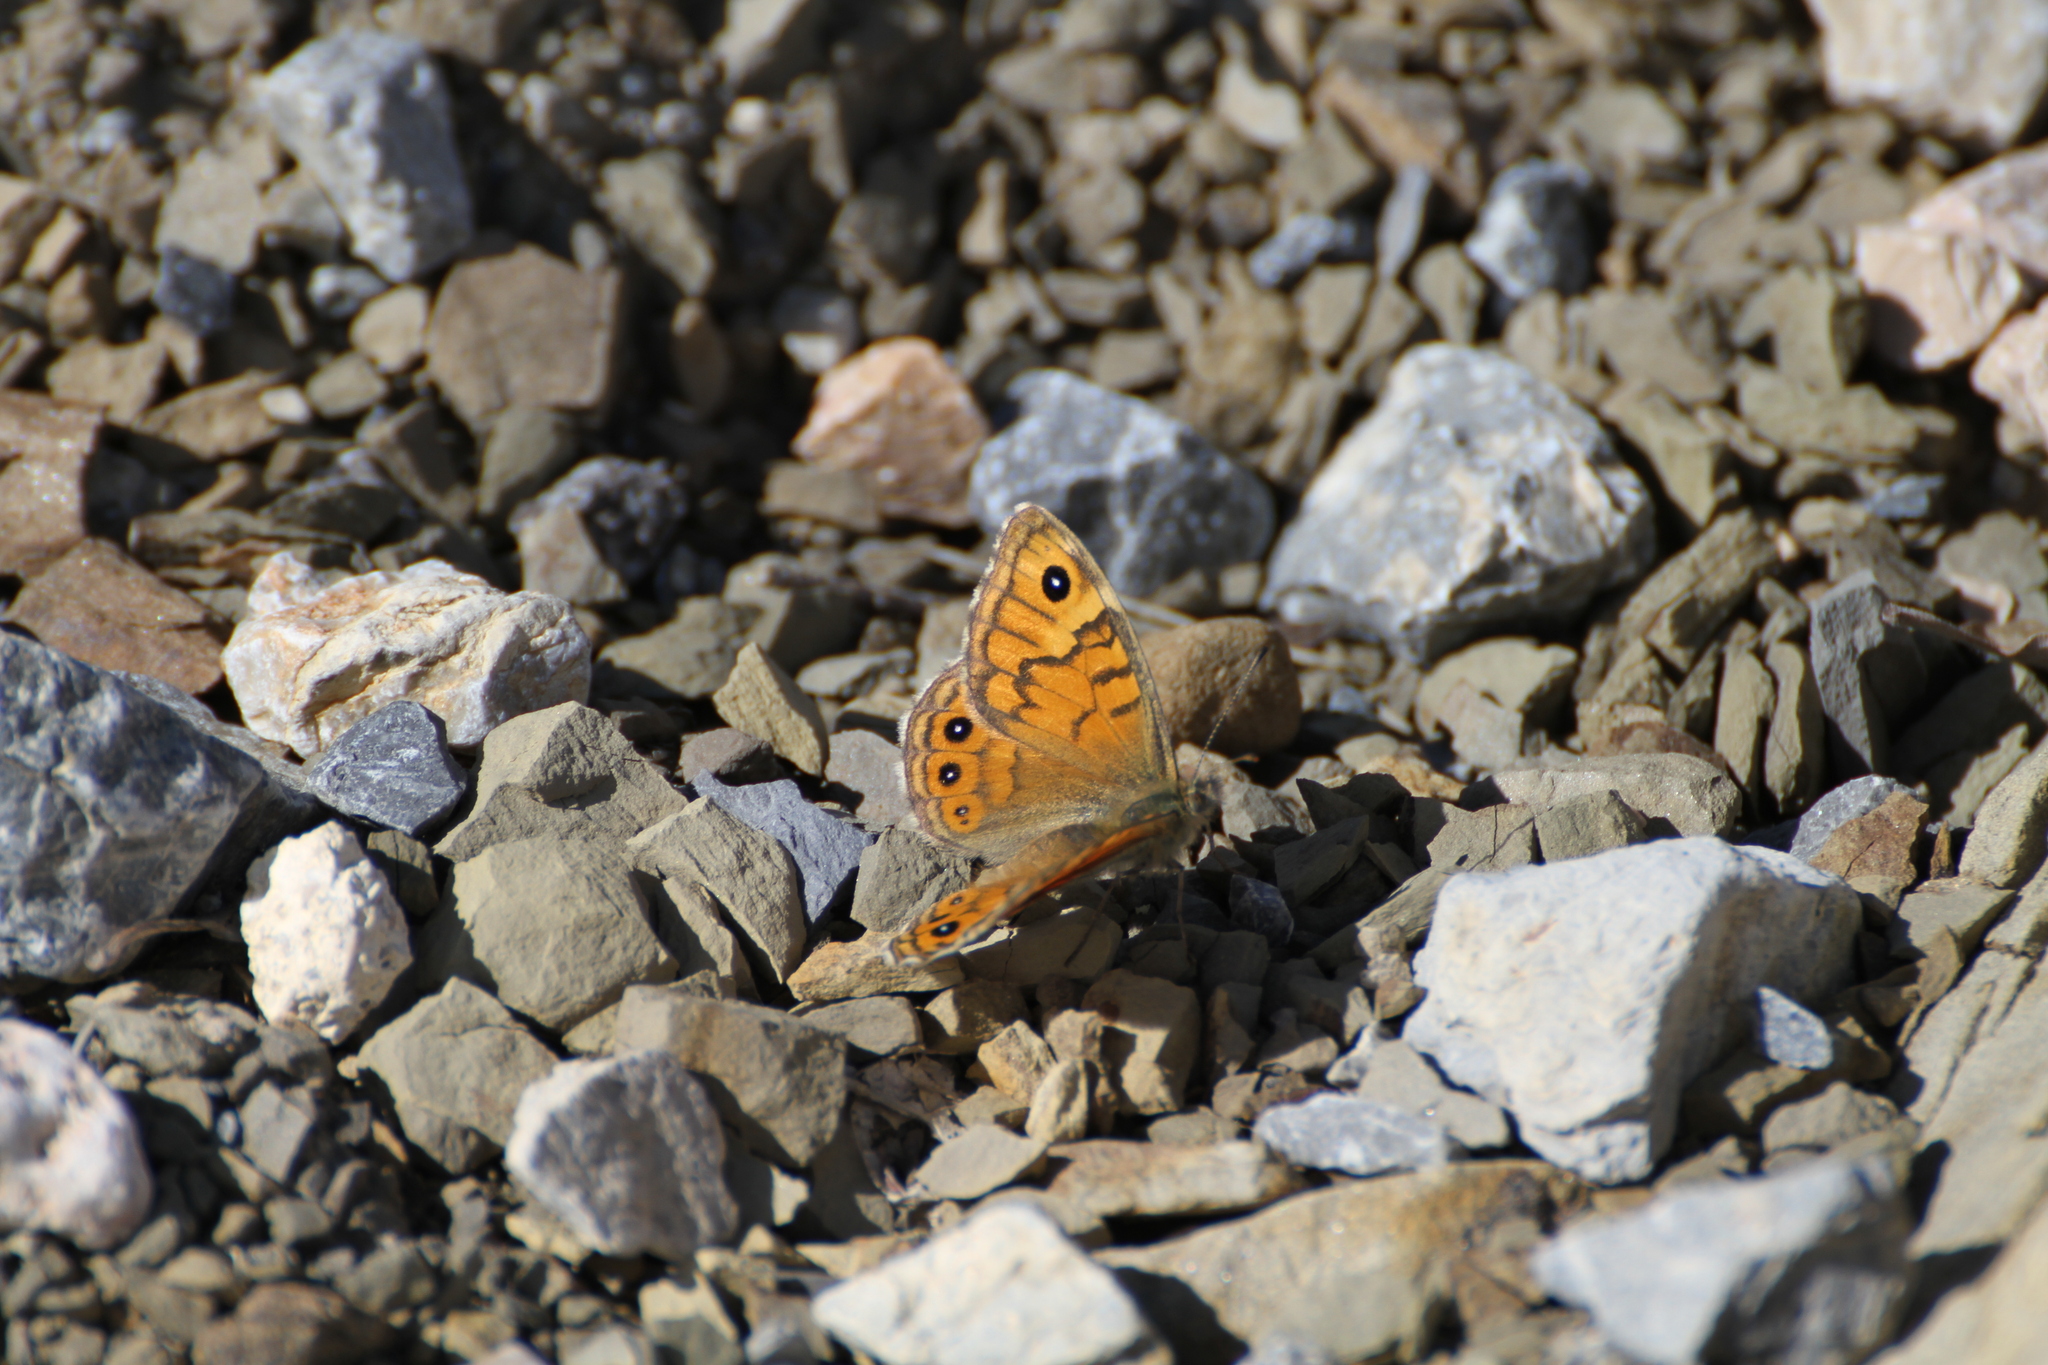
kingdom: Animalia
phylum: Arthropoda
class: Insecta
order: Lepidoptera
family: Nymphalidae
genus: Pararge
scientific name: Pararge Lasiommata megera
